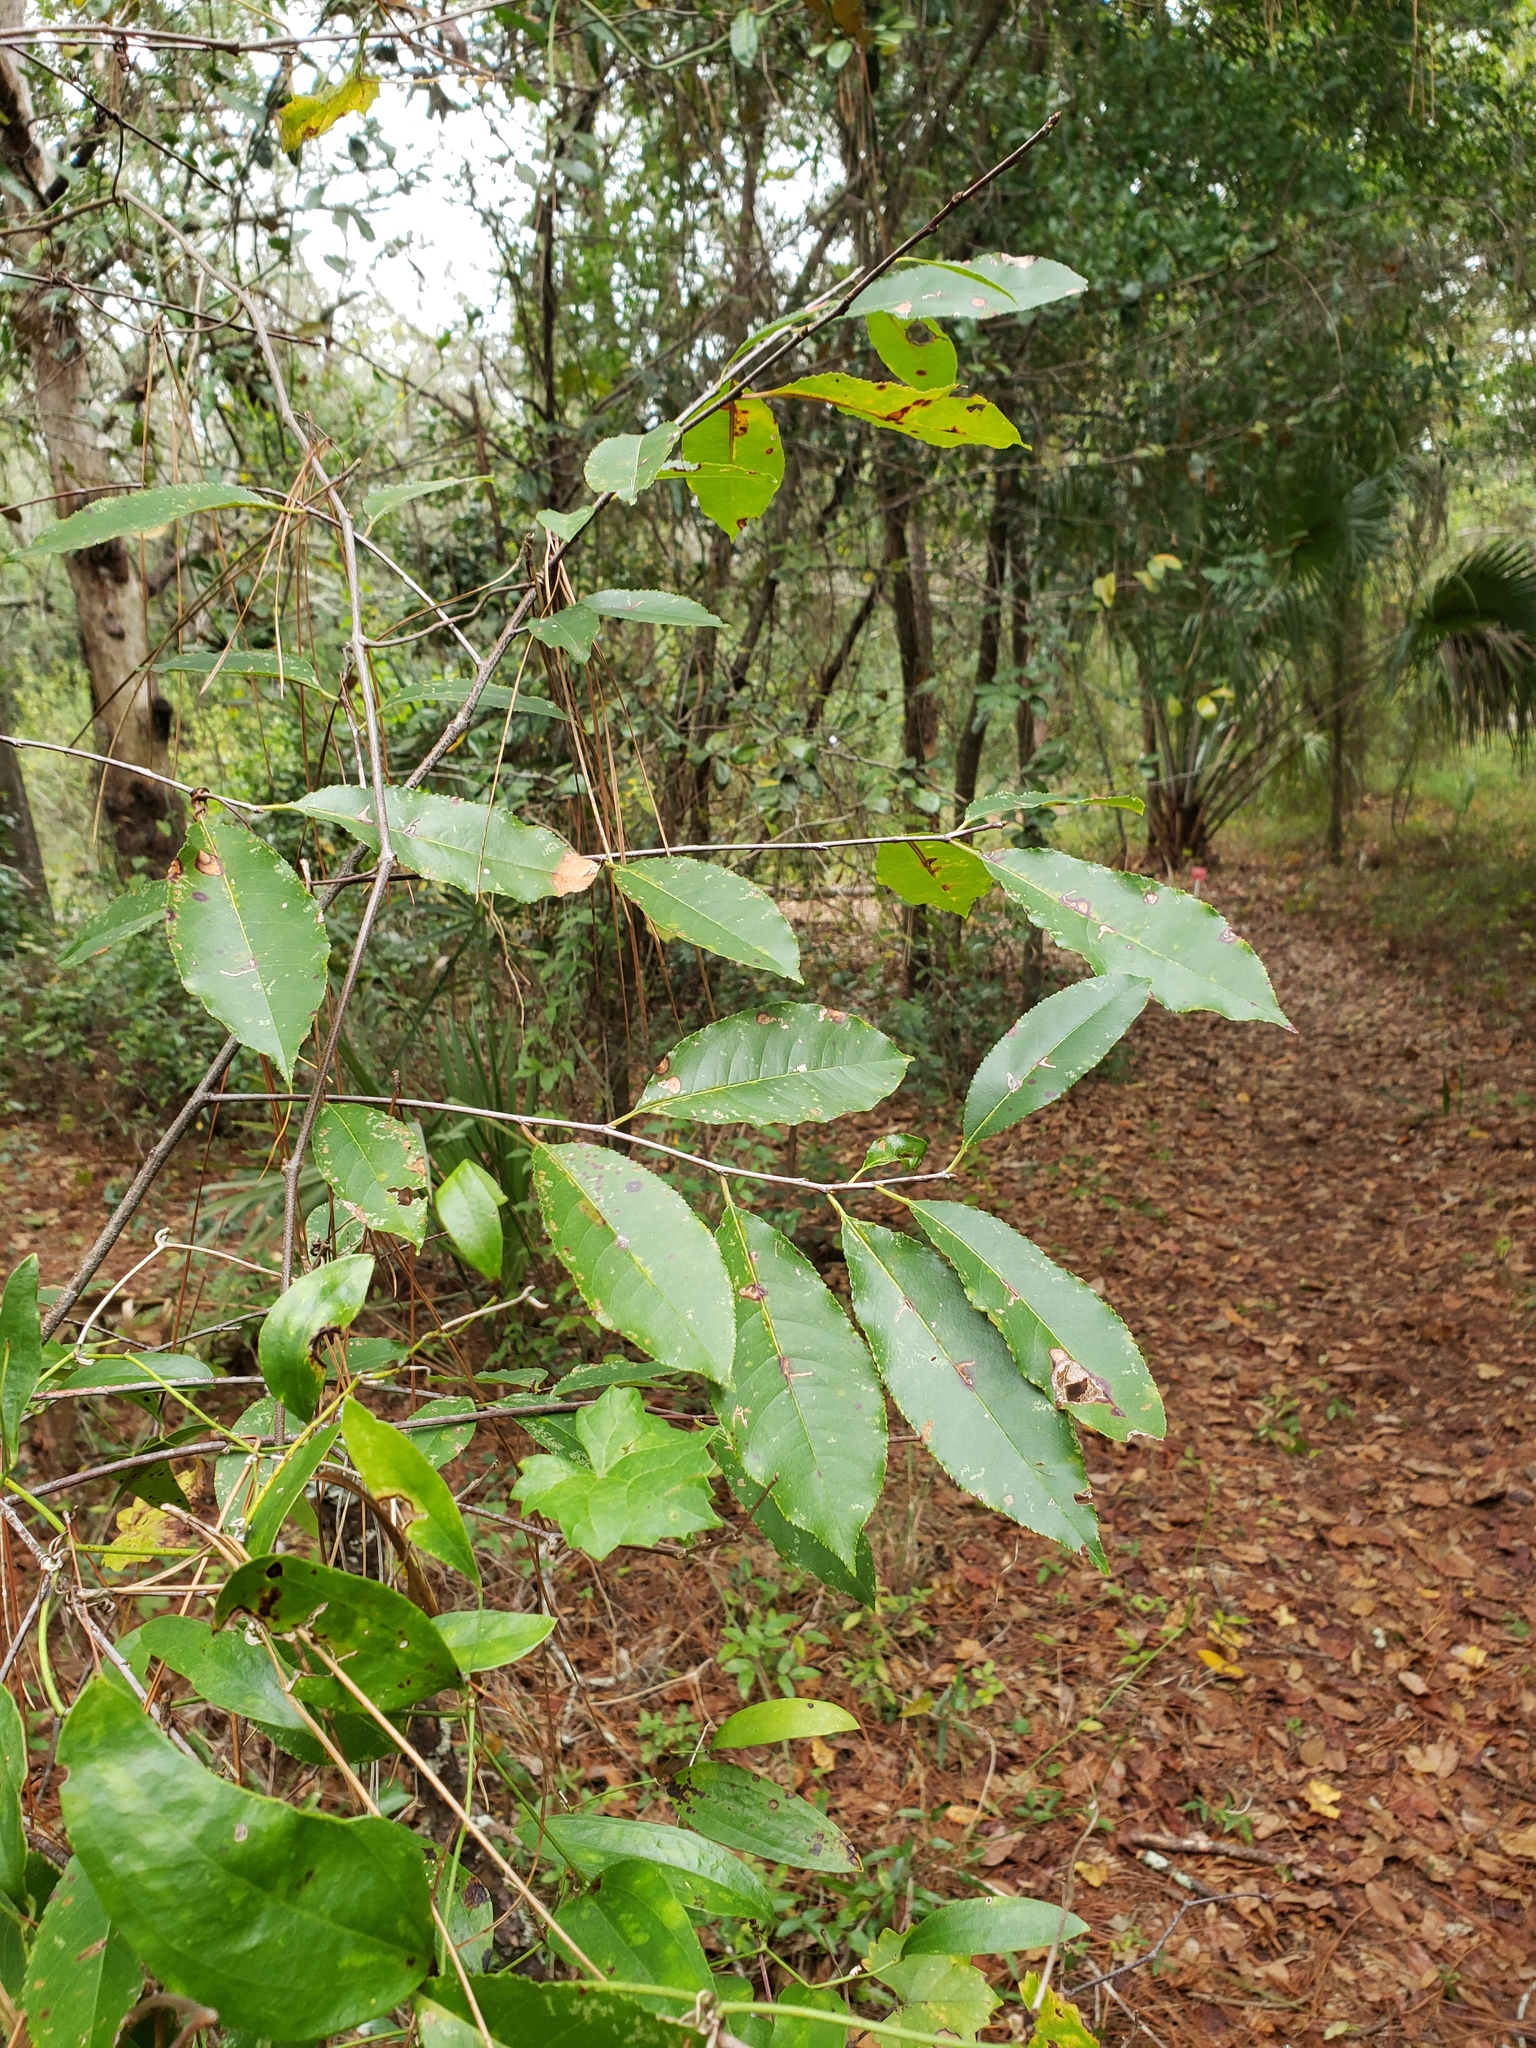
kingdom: Plantae
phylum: Tracheophyta
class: Magnoliopsida
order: Rosales
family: Rosaceae
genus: Prunus
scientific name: Prunus serotina
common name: Black cherry
